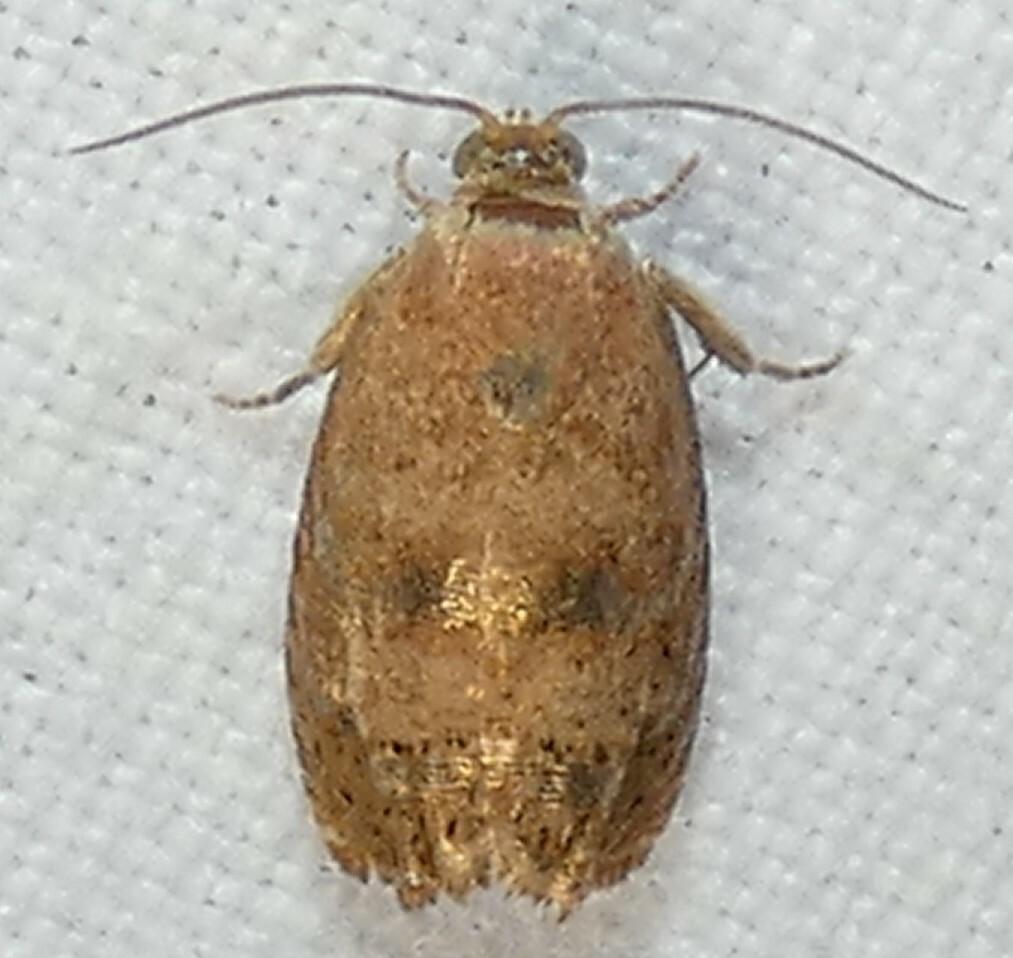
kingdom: Animalia
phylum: Arthropoda
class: Insecta
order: Lepidoptera
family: Tortricidae
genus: Cydia
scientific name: Cydia latiferreana
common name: Filbertworm moth
